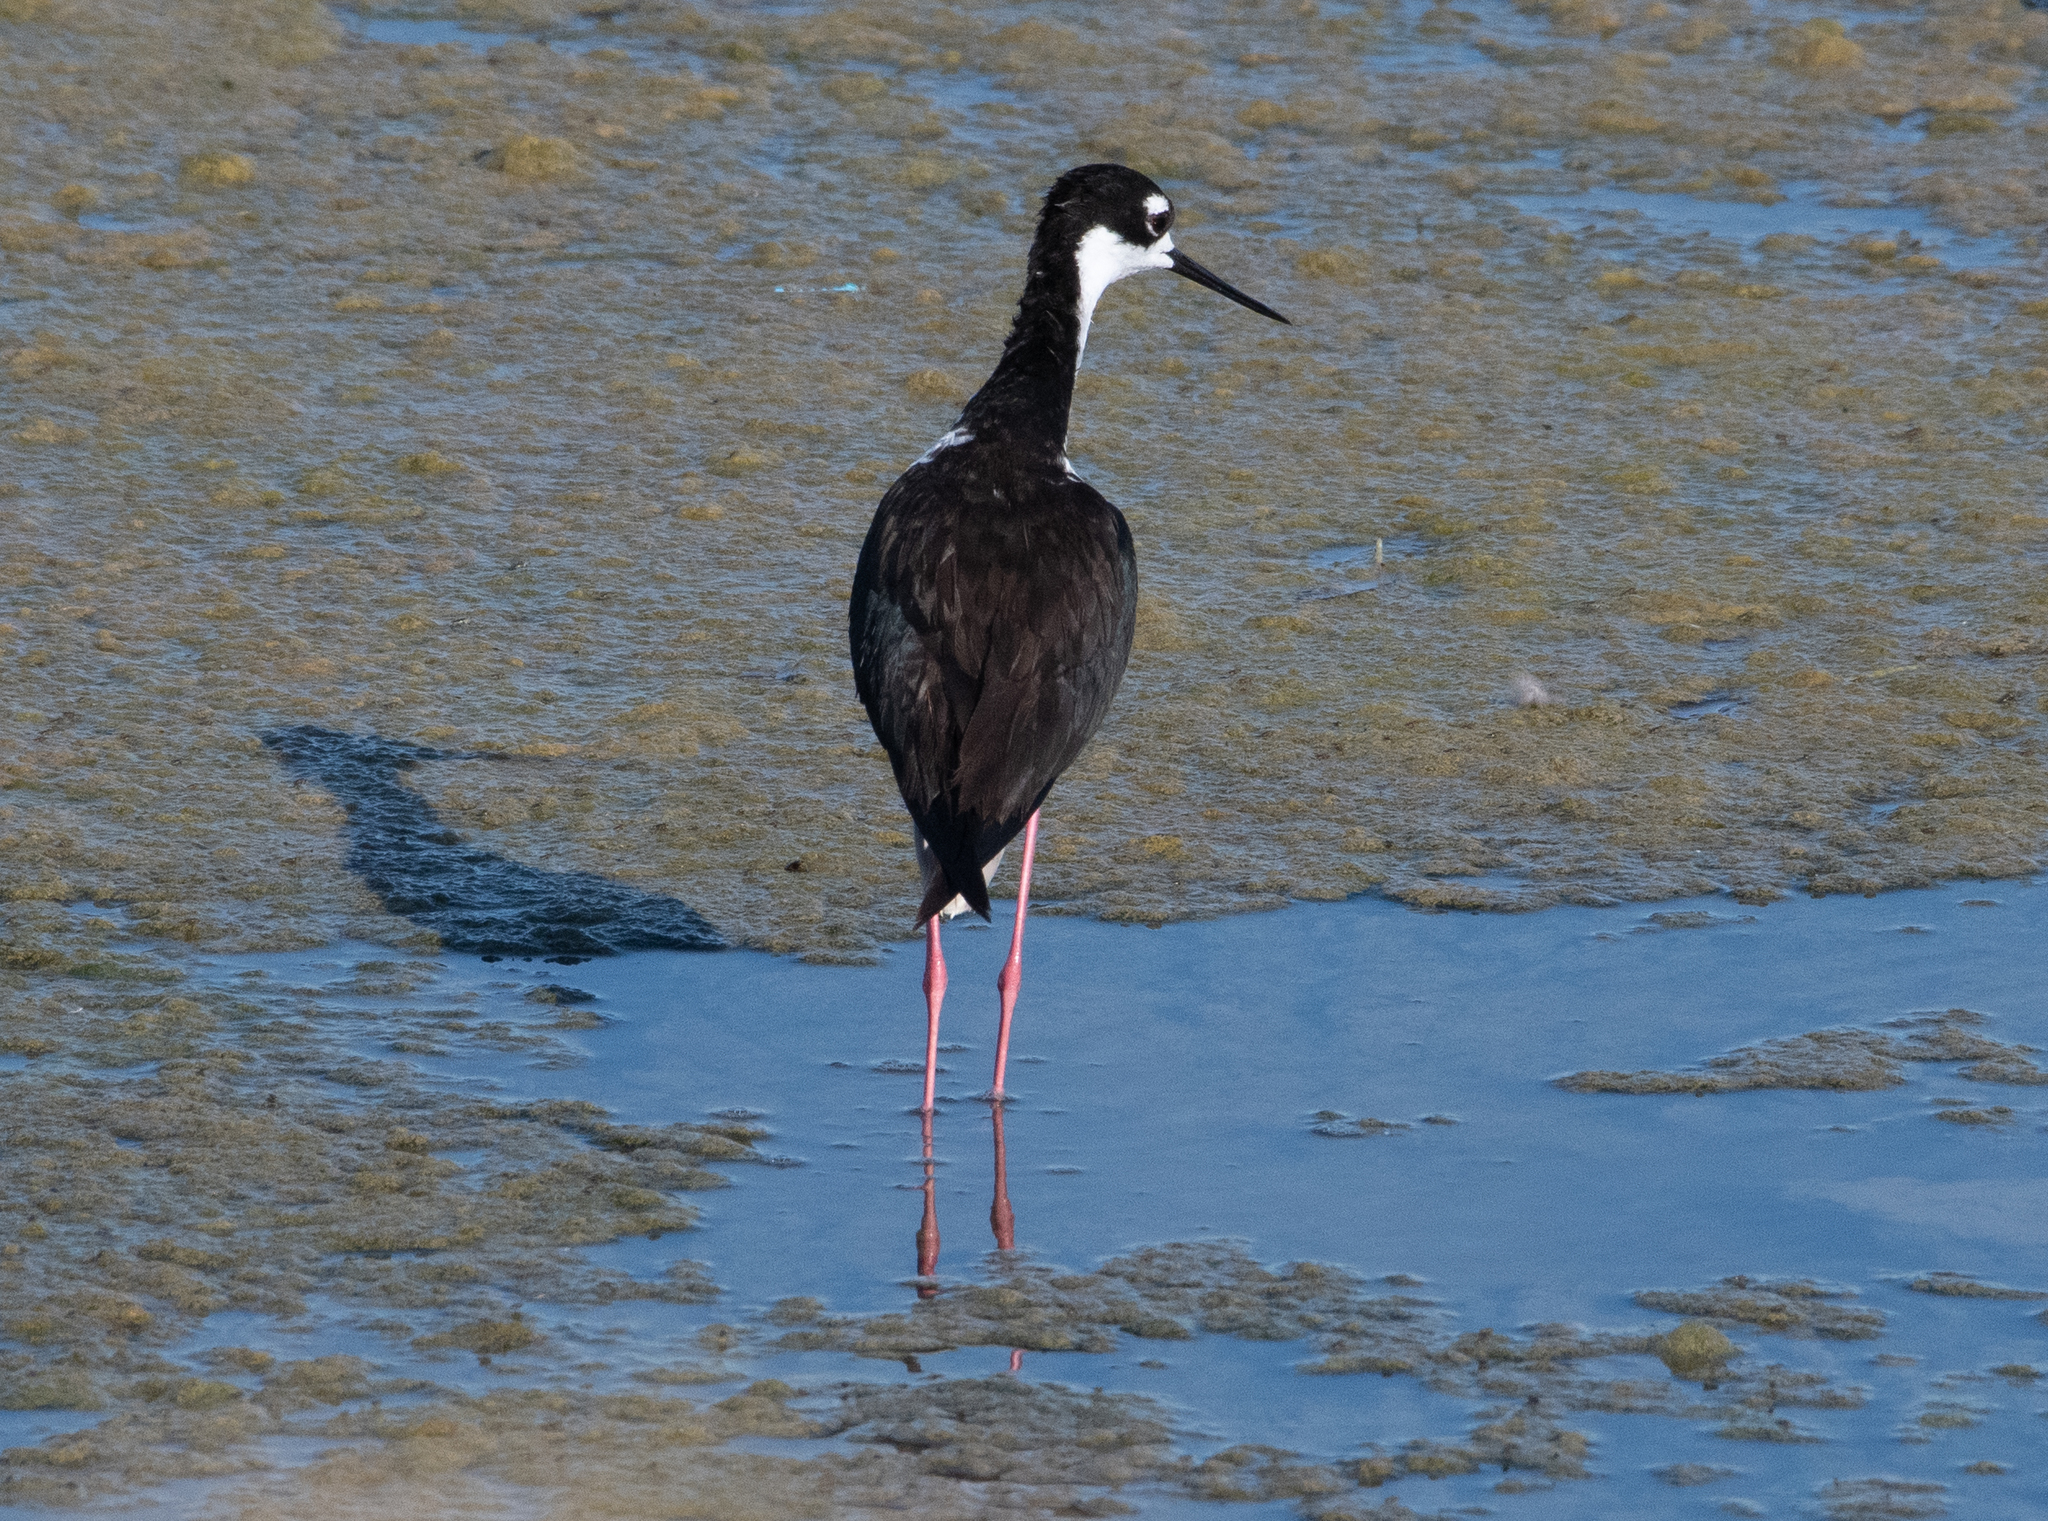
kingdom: Animalia
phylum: Chordata
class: Aves
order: Charadriiformes
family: Recurvirostridae
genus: Himantopus
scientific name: Himantopus mexicanus
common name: Black-necked stilt
